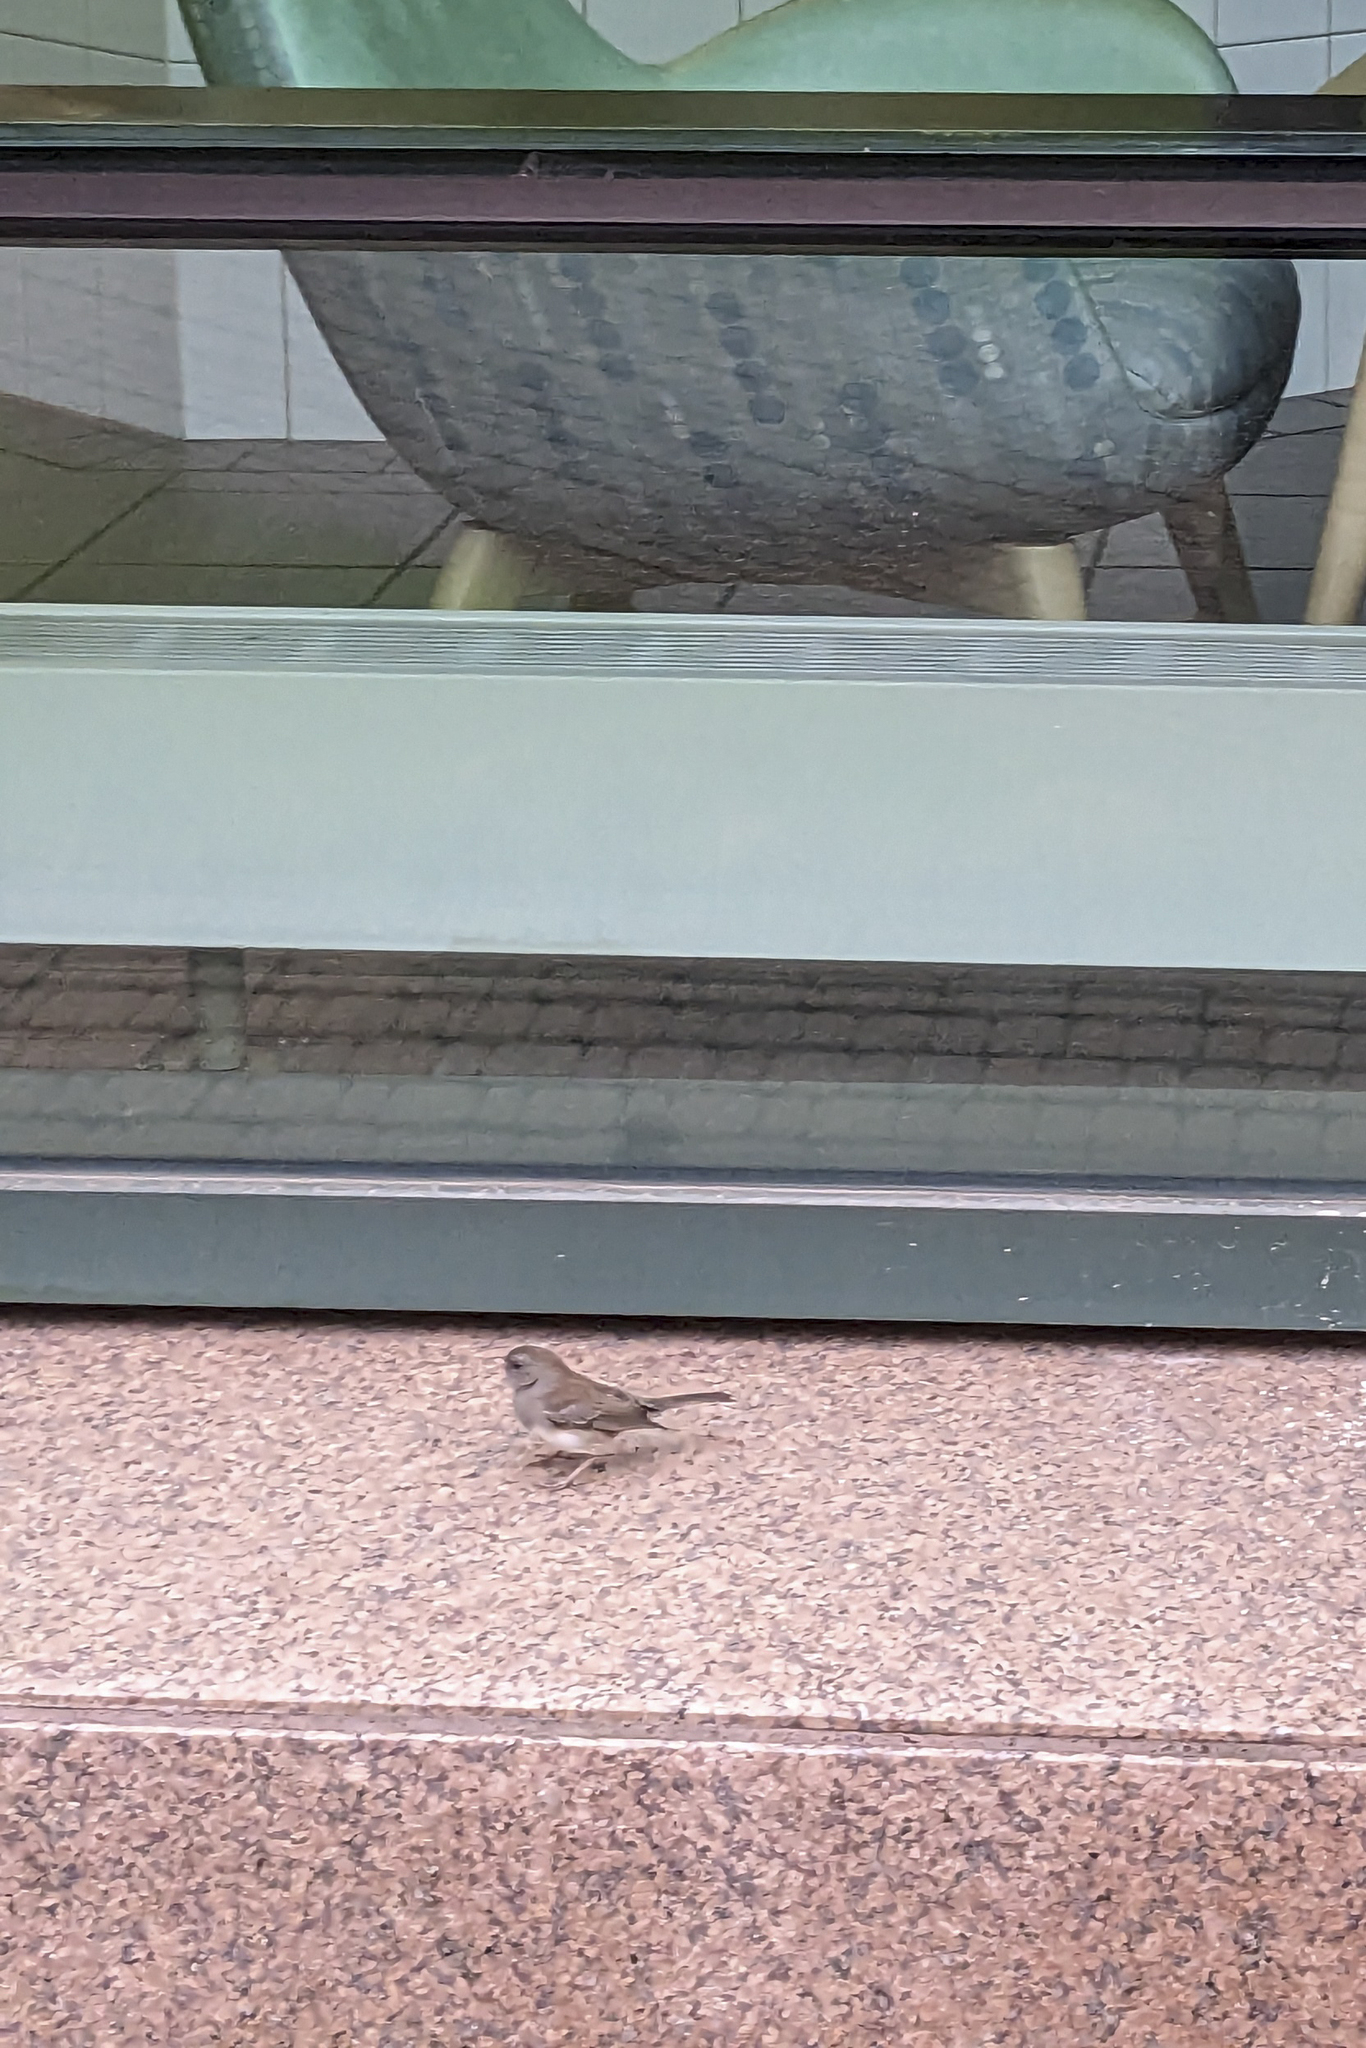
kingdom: Animalia
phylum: Chordata
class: Aves
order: Passeriformes
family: Passerellidae
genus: Junco
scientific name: Junco hyemalis
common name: Dark-eyed junco
